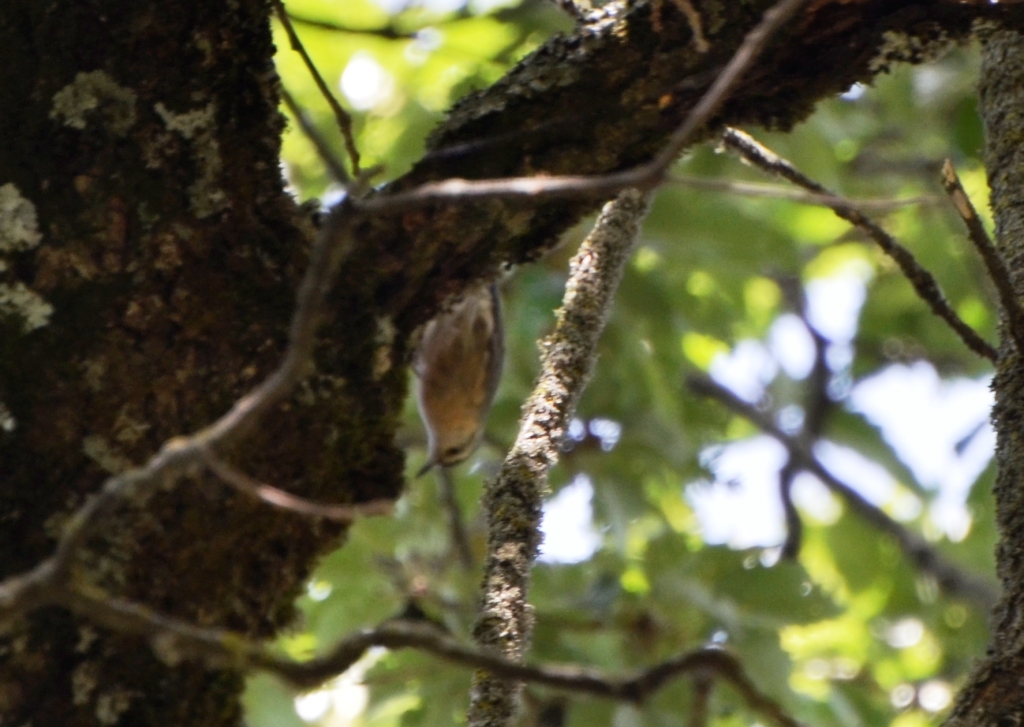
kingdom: Animalia
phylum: Chordata
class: Aves
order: Passeriformes
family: Sittidae
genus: Sitta
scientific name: Sitta ledanti
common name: Algerian nuthatch
